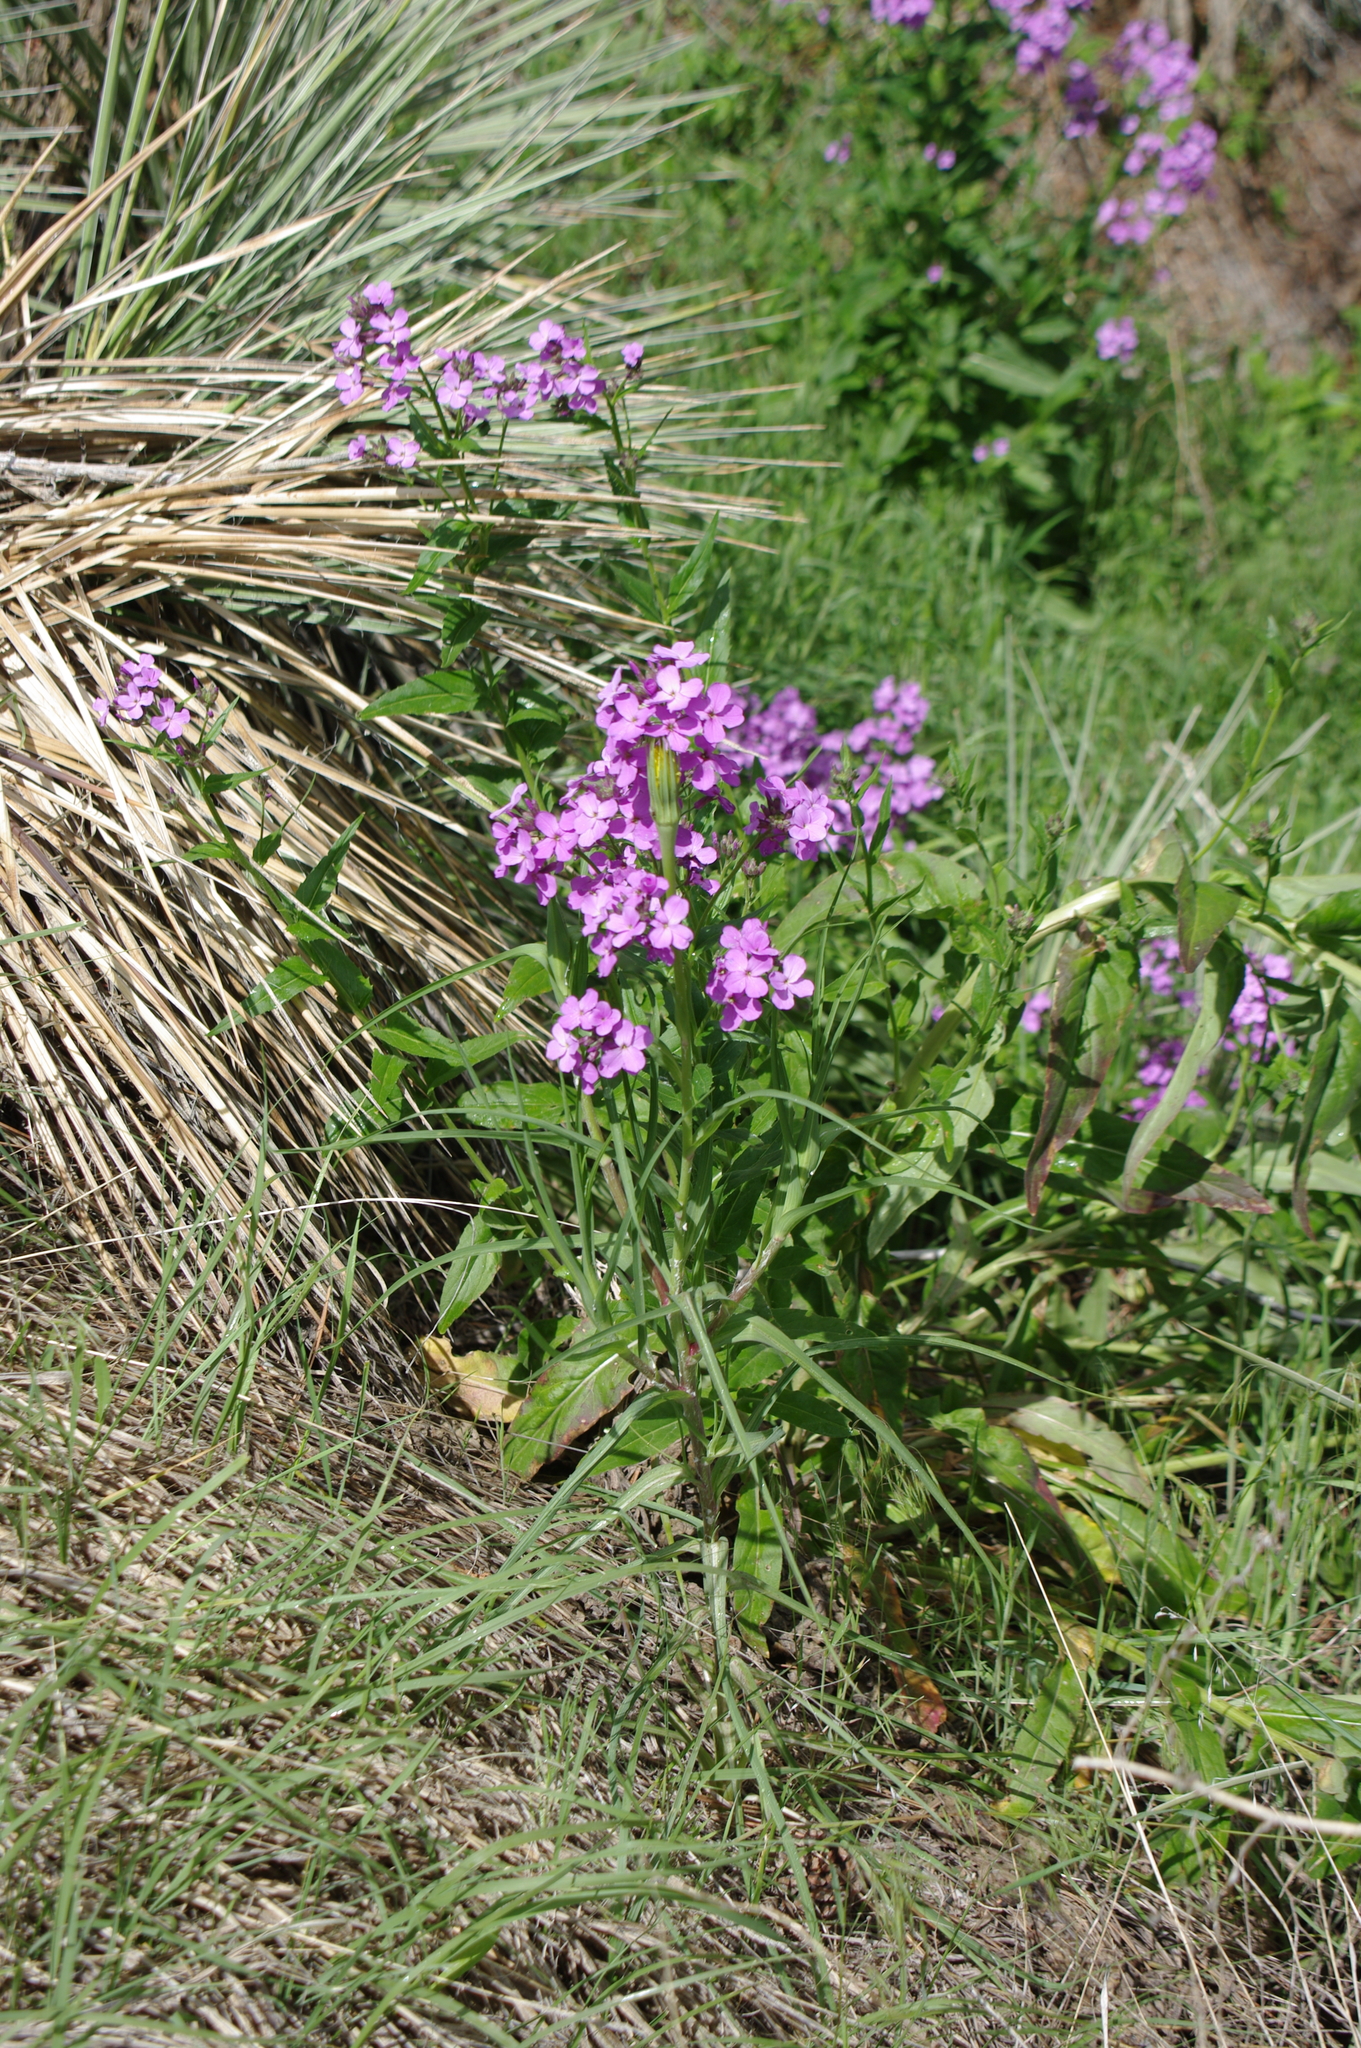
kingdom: Plantae
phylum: Tracheophyta
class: Magnoliopsida
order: Brassicales
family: Brassicaceae
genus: Hesperis
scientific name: Hesperis matronalis
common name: Dame's-violet
